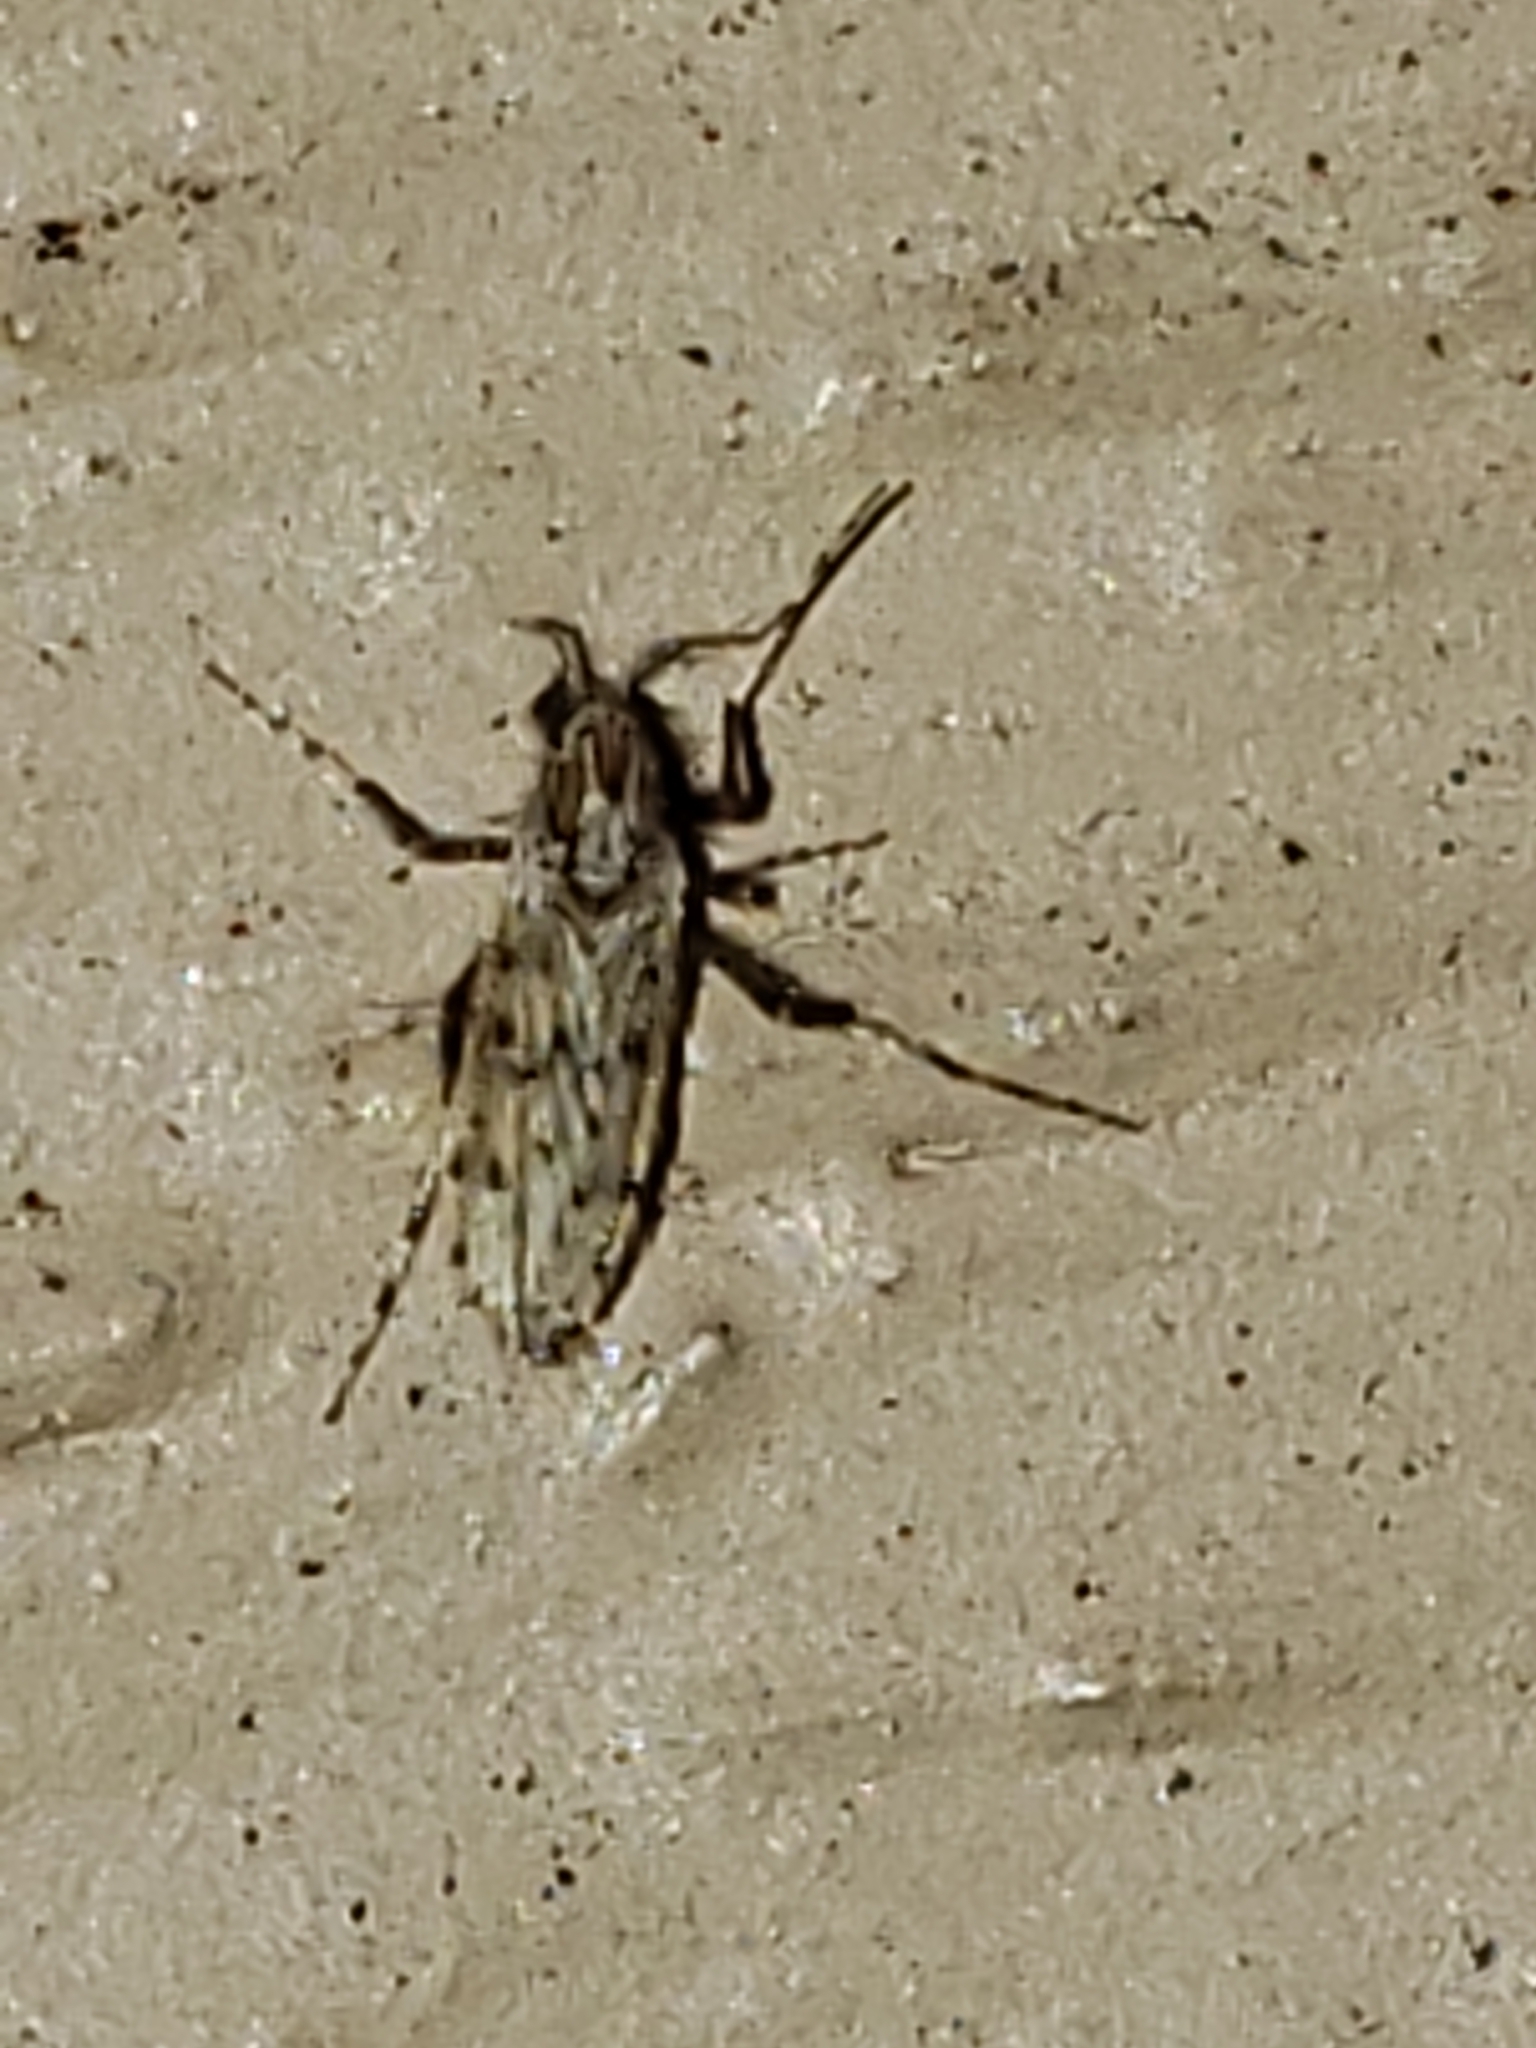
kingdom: Animalia
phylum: Arthropoda
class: Insecta
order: Diptera
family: Chaoboridae
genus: Chaoborus
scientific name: Chaoborus punctipennis
